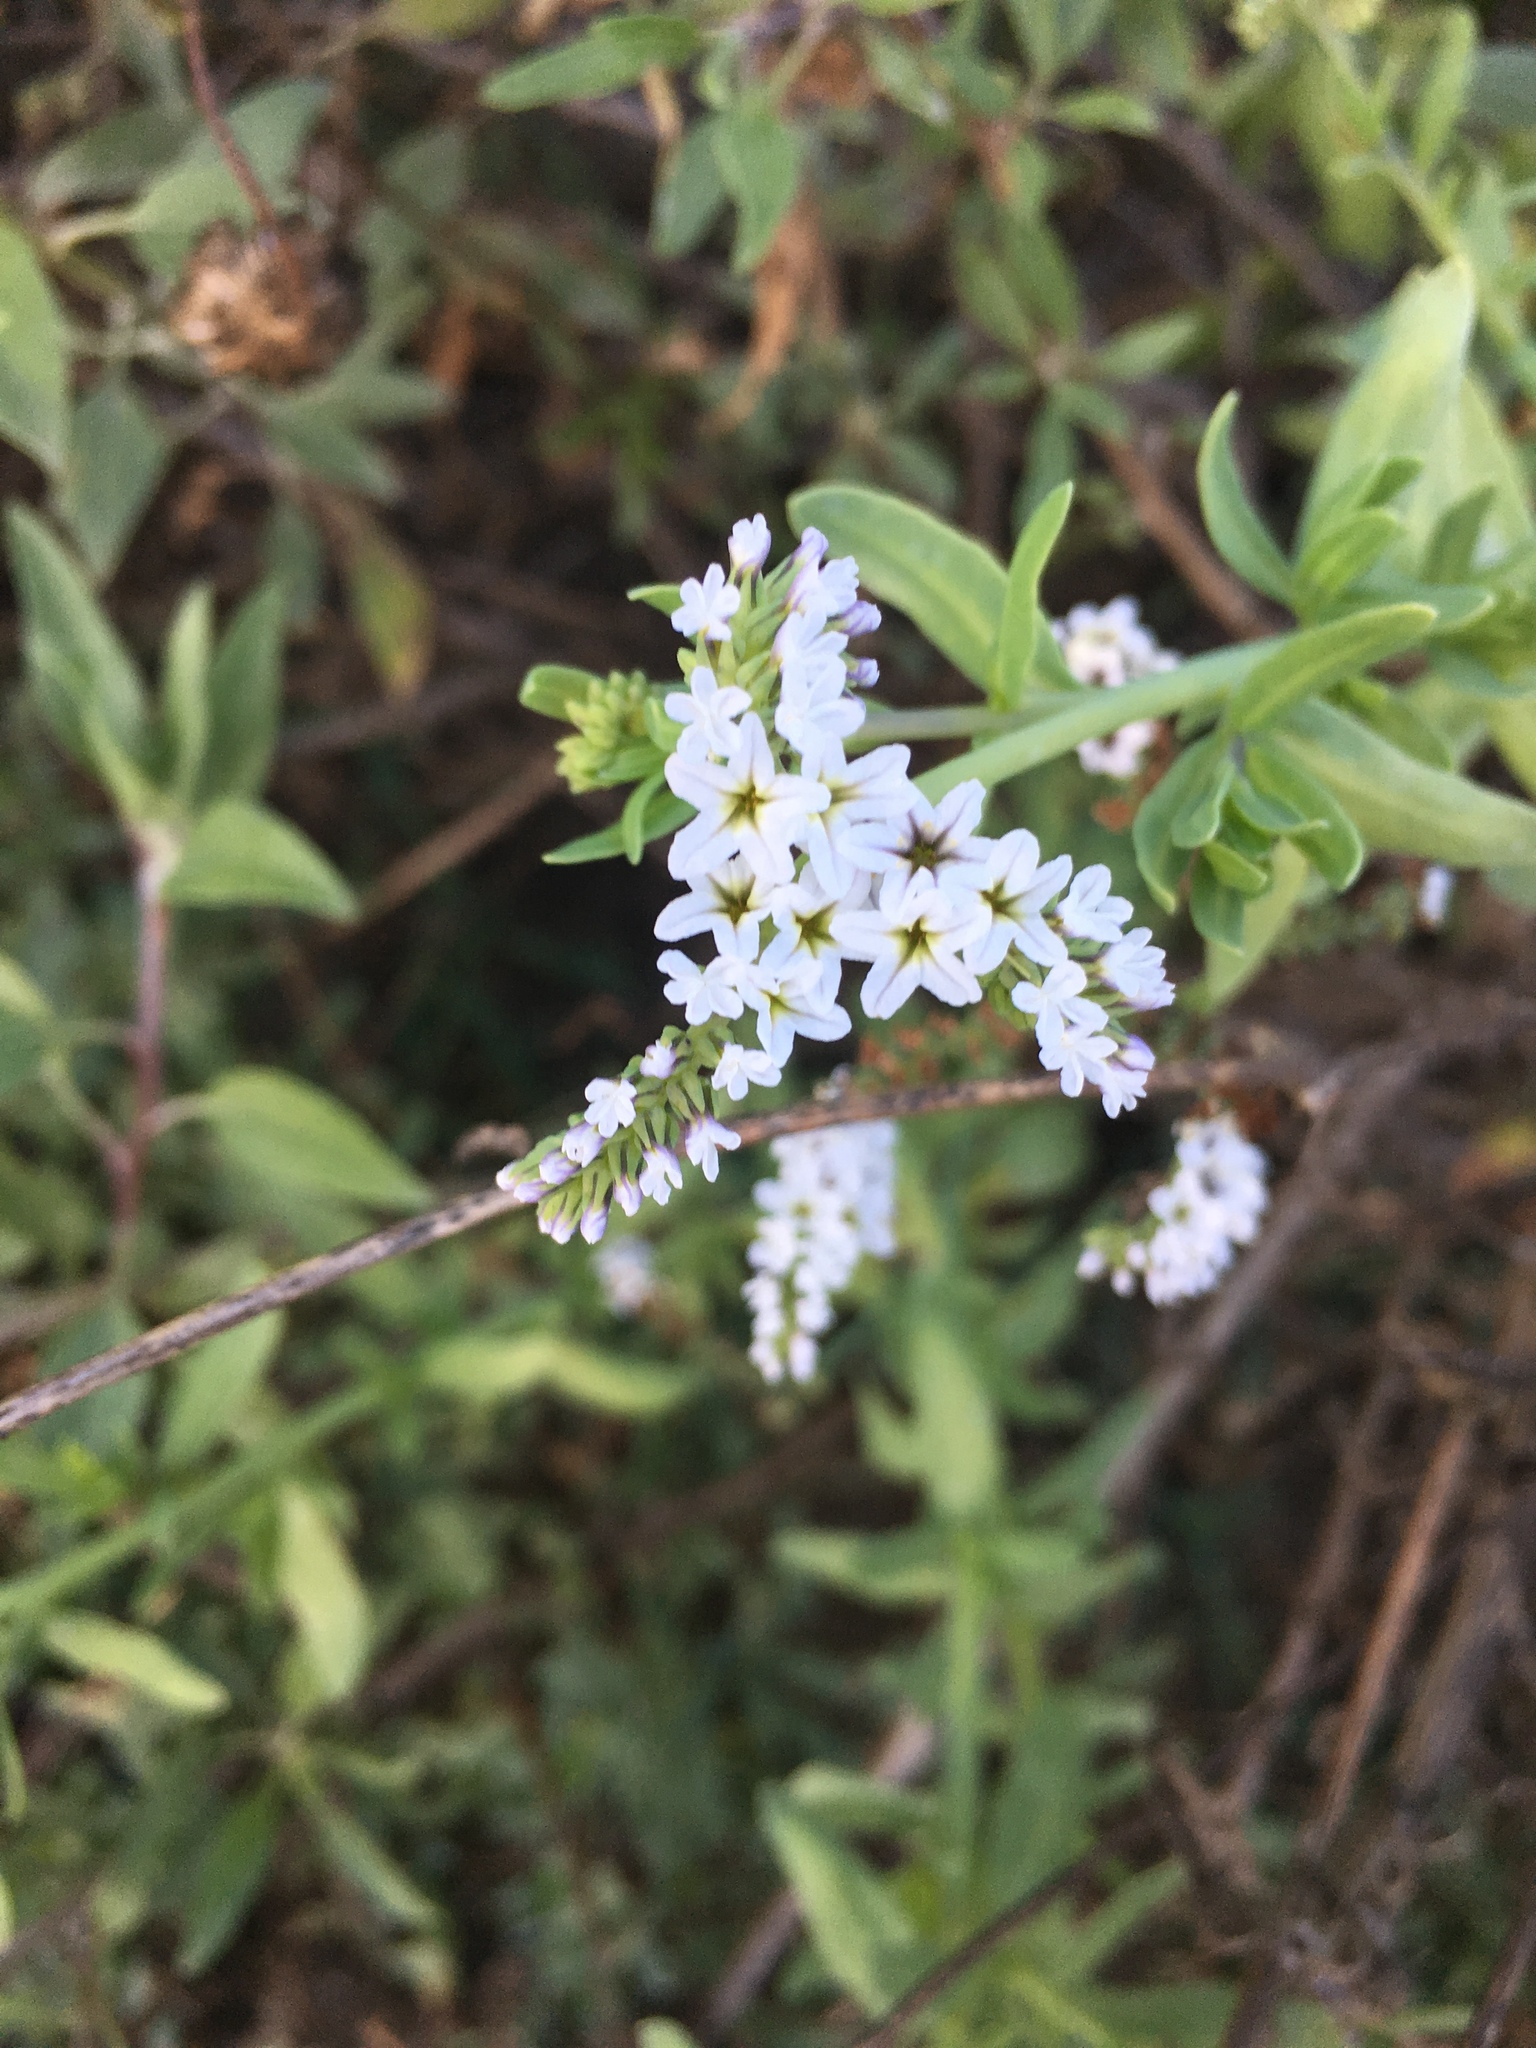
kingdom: Plantae
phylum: Tracheophyta
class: Magnoliopsida
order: Boraginales
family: Heliotropiaceae
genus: Heliotropium
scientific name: Heliotropium curassavicum
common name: Seaside heliotrope
